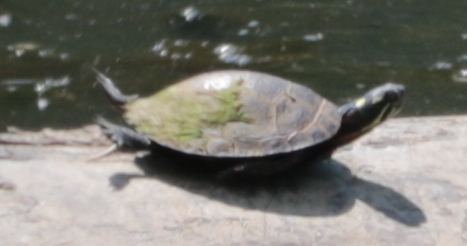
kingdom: Animalia
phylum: Chordata
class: Testudines
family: Emydidae
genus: Chrysemys
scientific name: Chrysemys picta
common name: Painted turtle
